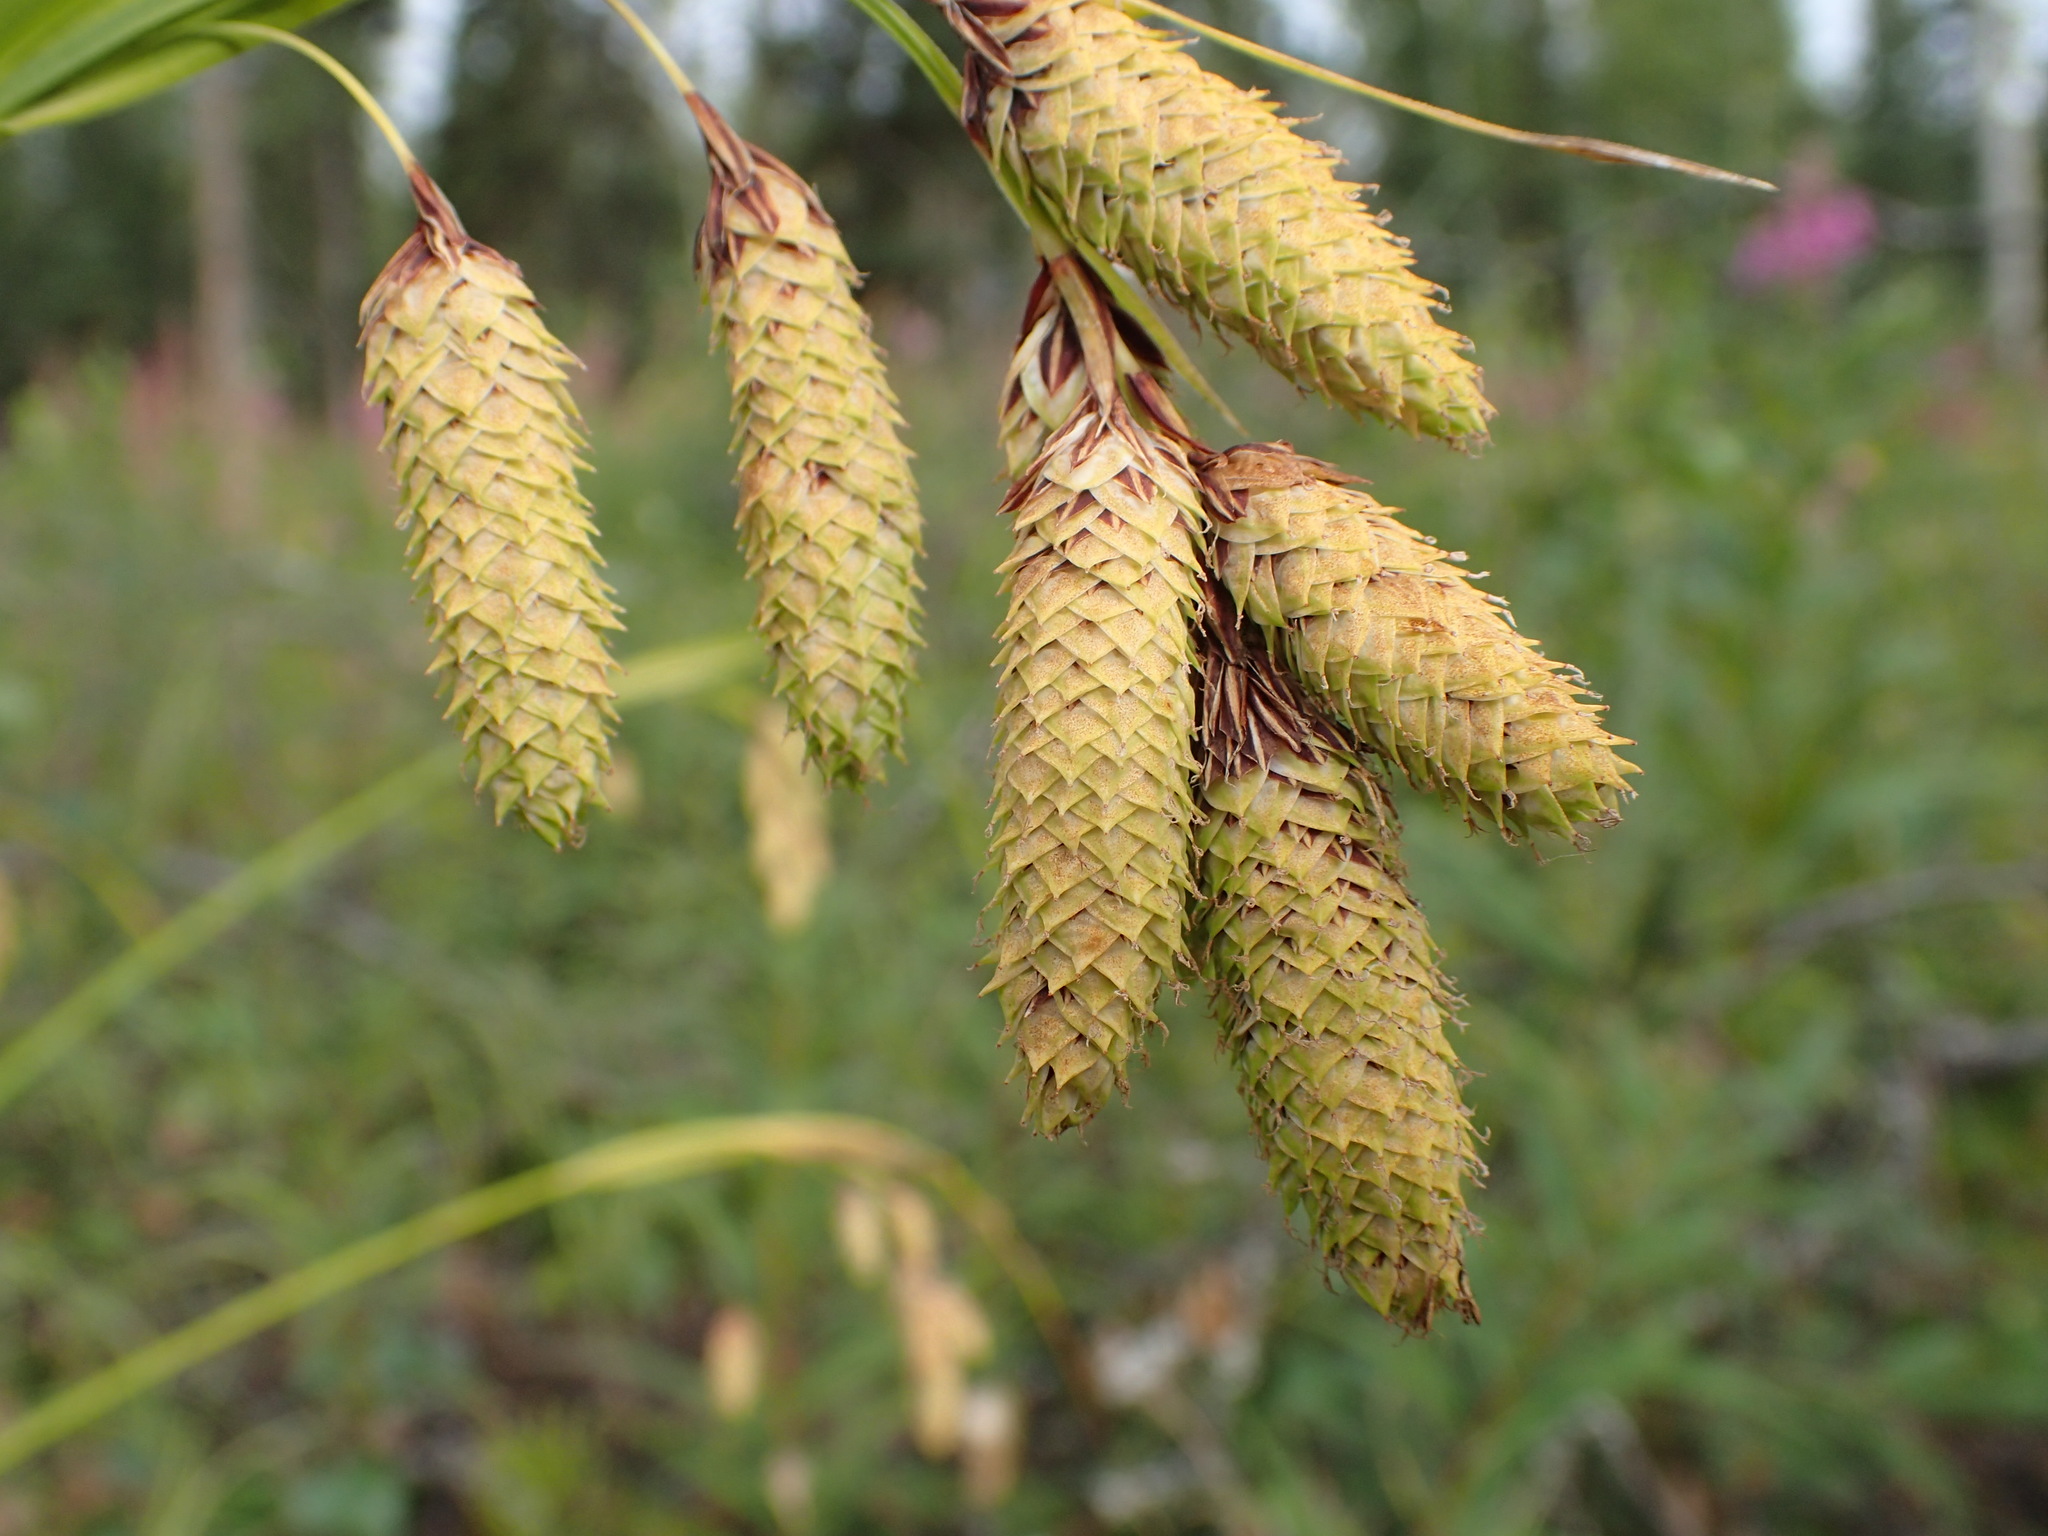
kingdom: Plantae
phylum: Tracheophyta
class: Liliopsida
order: Poales
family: Cyperaceae
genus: Carex
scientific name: Carex mertensii
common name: Mertens' sedge
